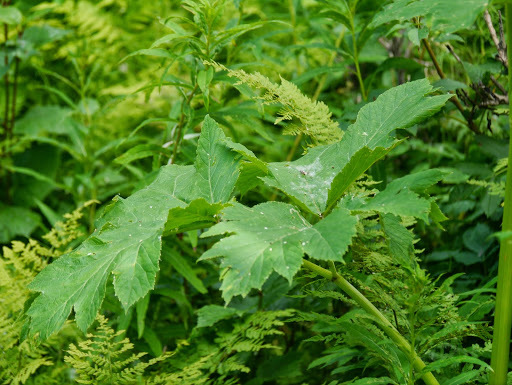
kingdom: Plantae
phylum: Tracheophyta
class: Magnoliopsida
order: Apiales
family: Apiaceae
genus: Heracleum
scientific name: Heracleum maximum
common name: American cow parsnip
